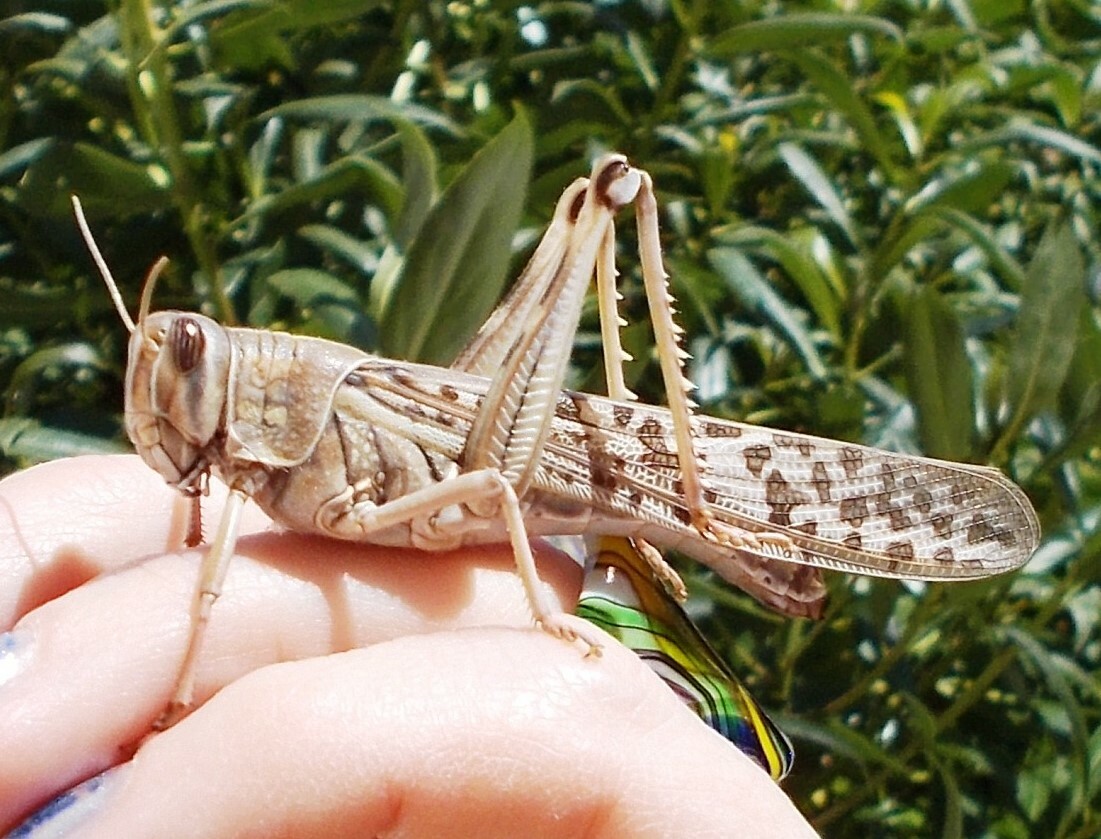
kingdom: Animalia
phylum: Arthropoda
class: Insecta
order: Orthoptera
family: Acrididae
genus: Schistocerca
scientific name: Schistocerca gregaria
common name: Desert locust
